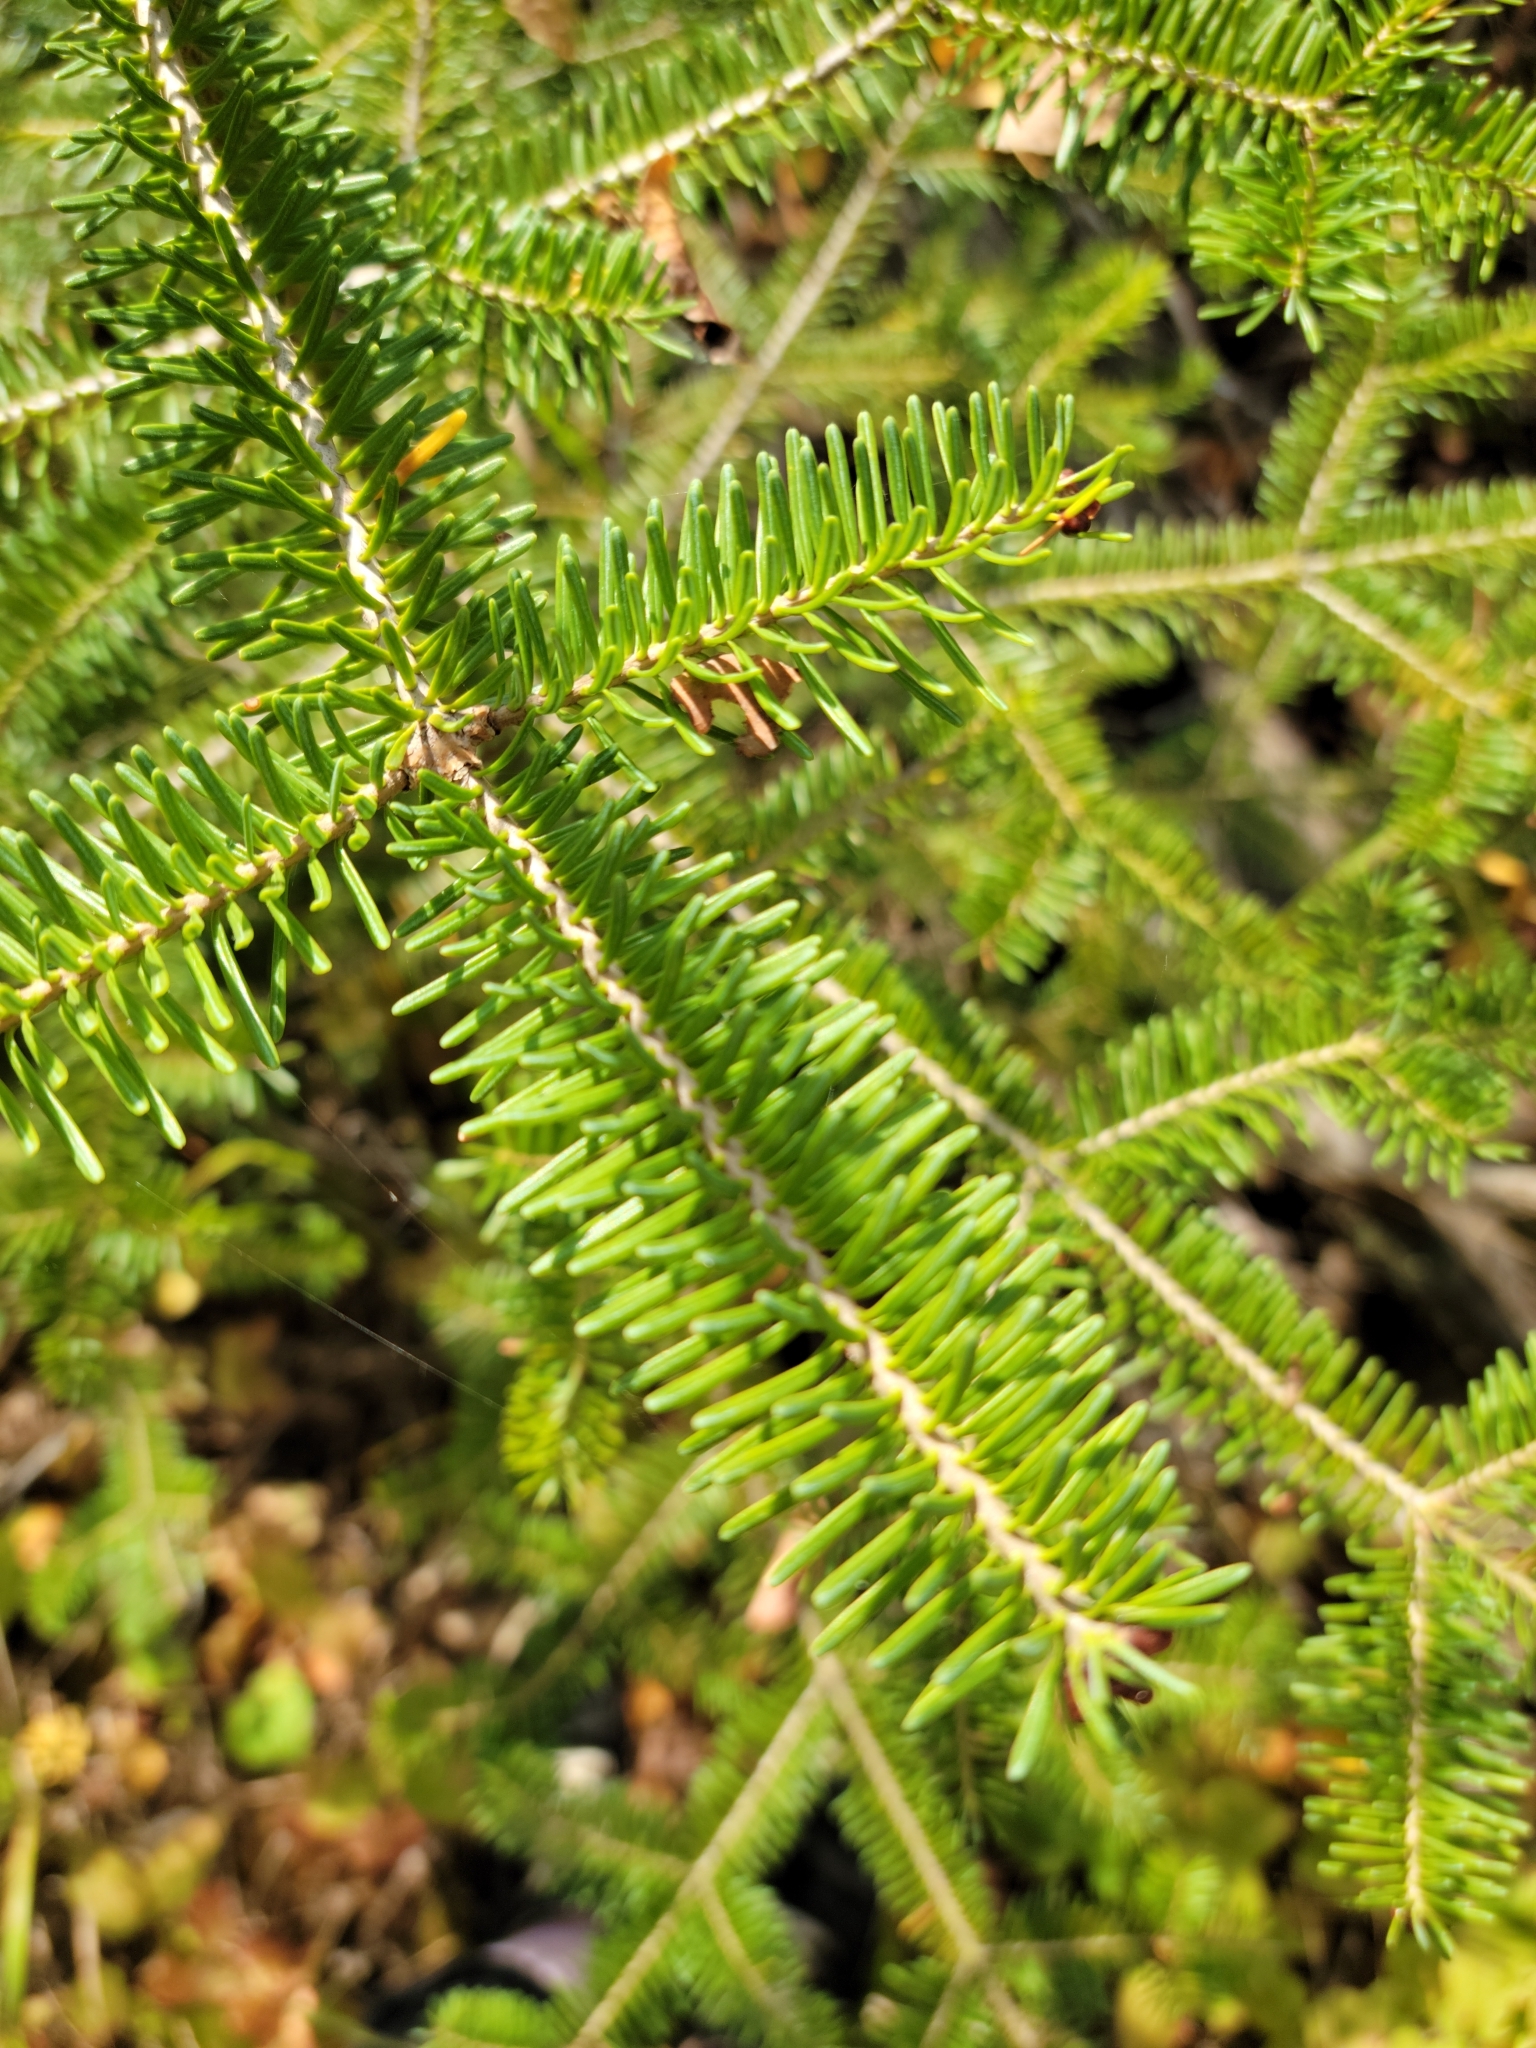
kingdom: Plantae
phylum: Tracheophyta
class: Pinopsida
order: Pinales
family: Pinaceae
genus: Abies
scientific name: Abies balsamea
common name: Balsam fir
